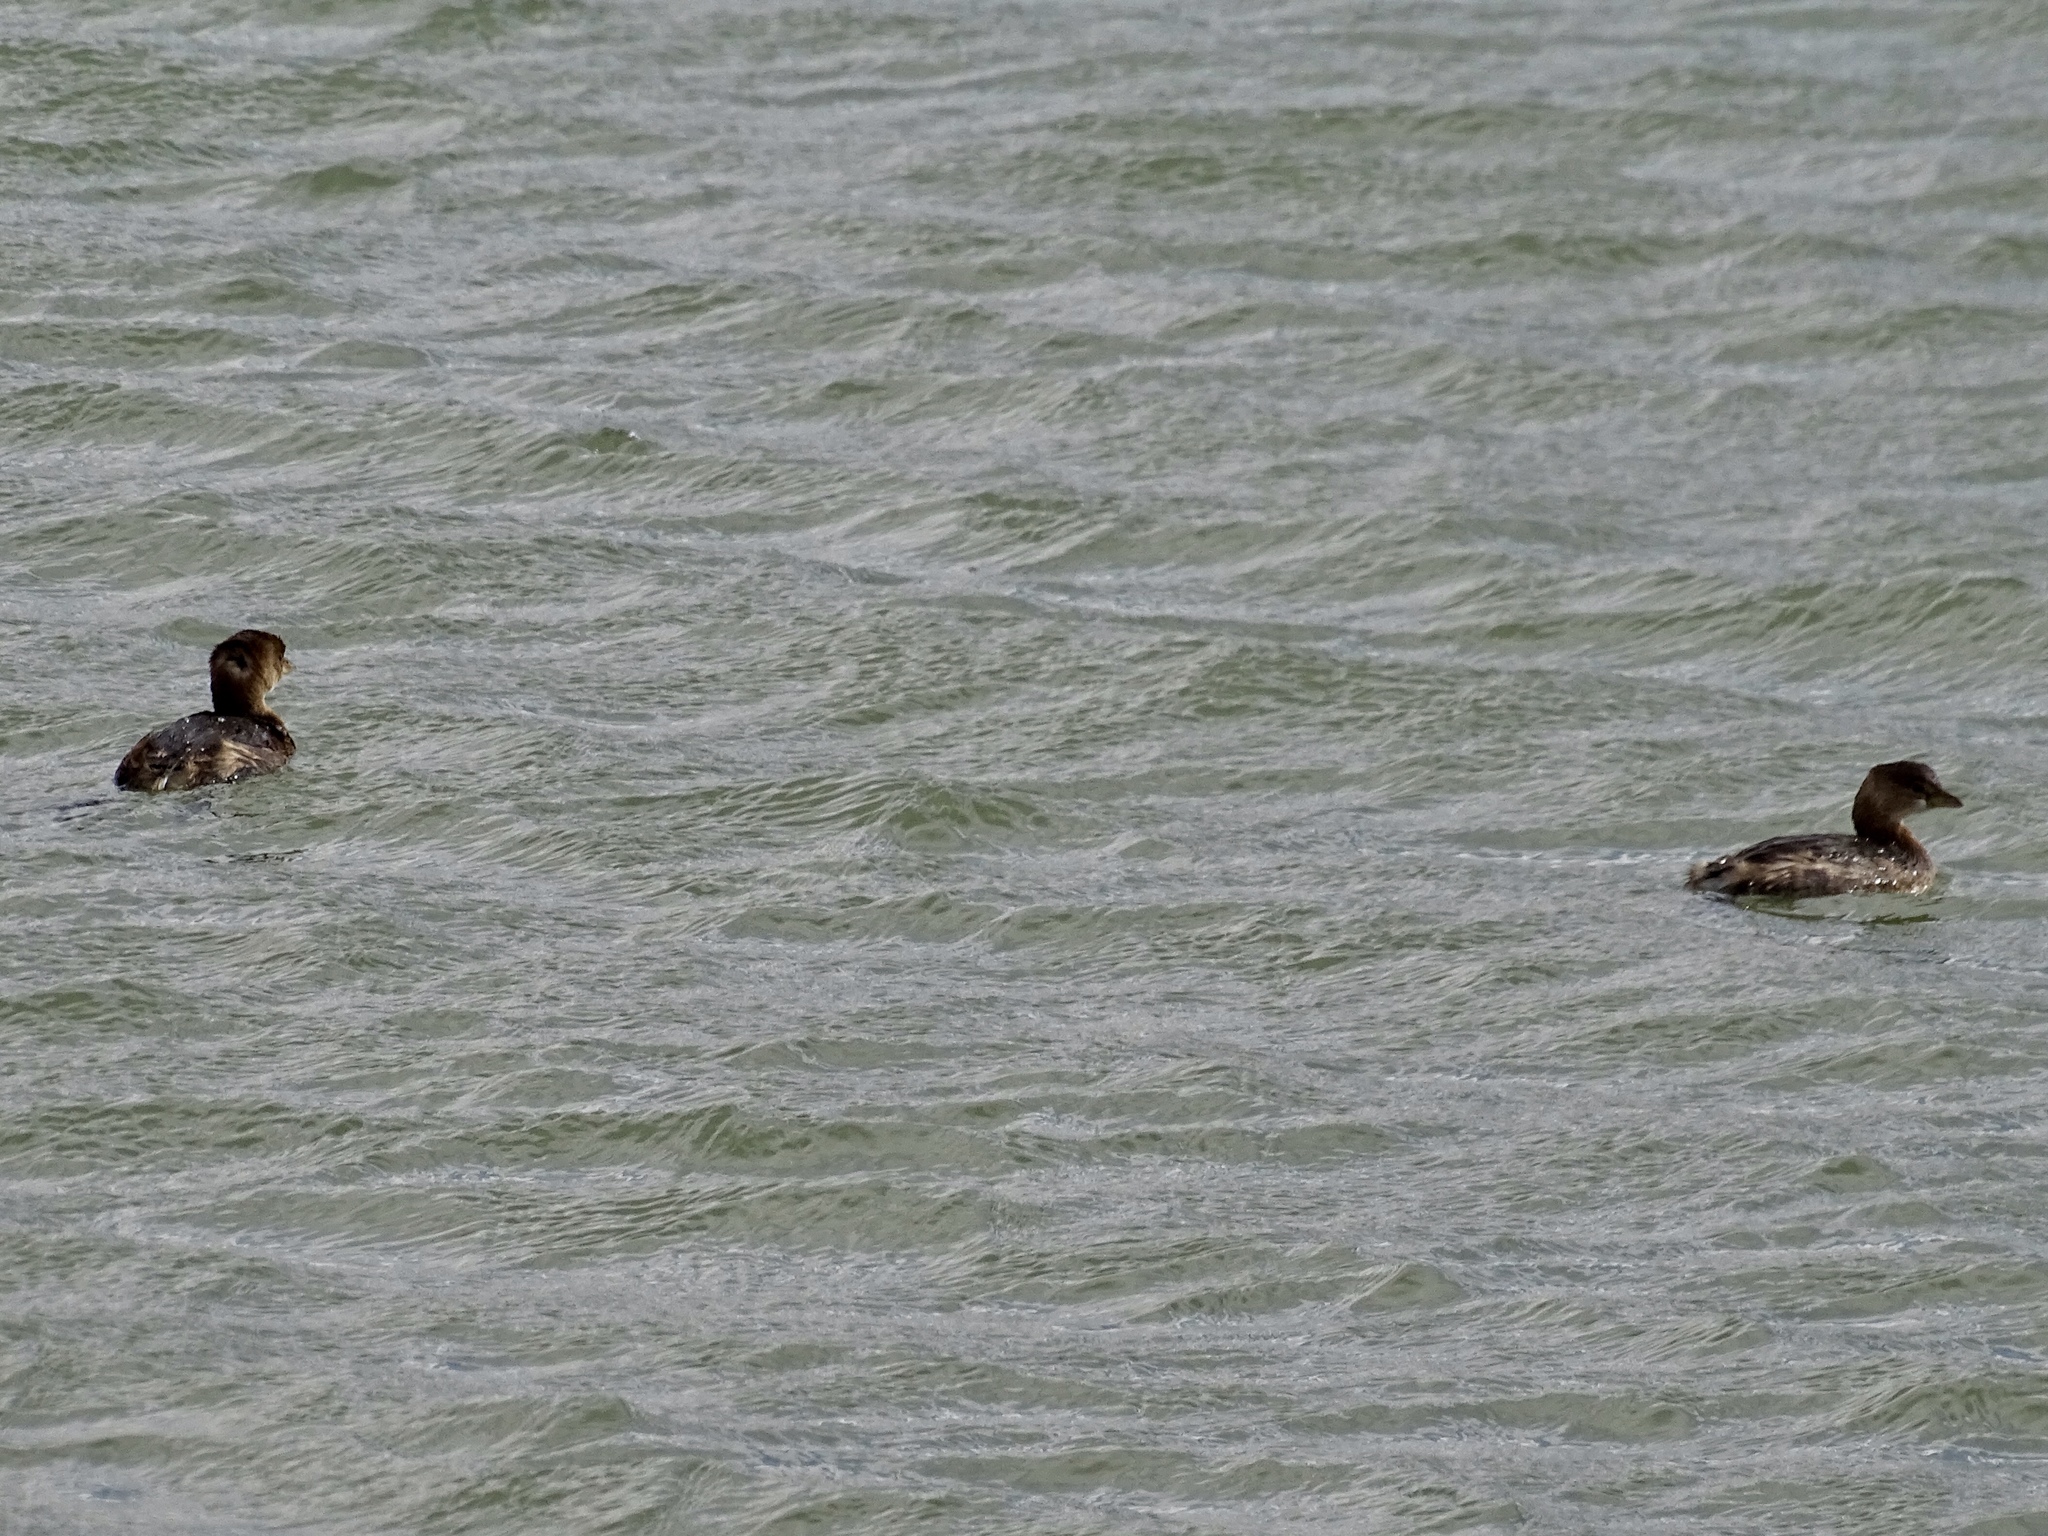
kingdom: Animalia
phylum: Chordata
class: Aves
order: Podicipediformes
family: Podicipedidae
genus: Podilymbus
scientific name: Podilymbus podiceps
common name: Pied-billed grebe
